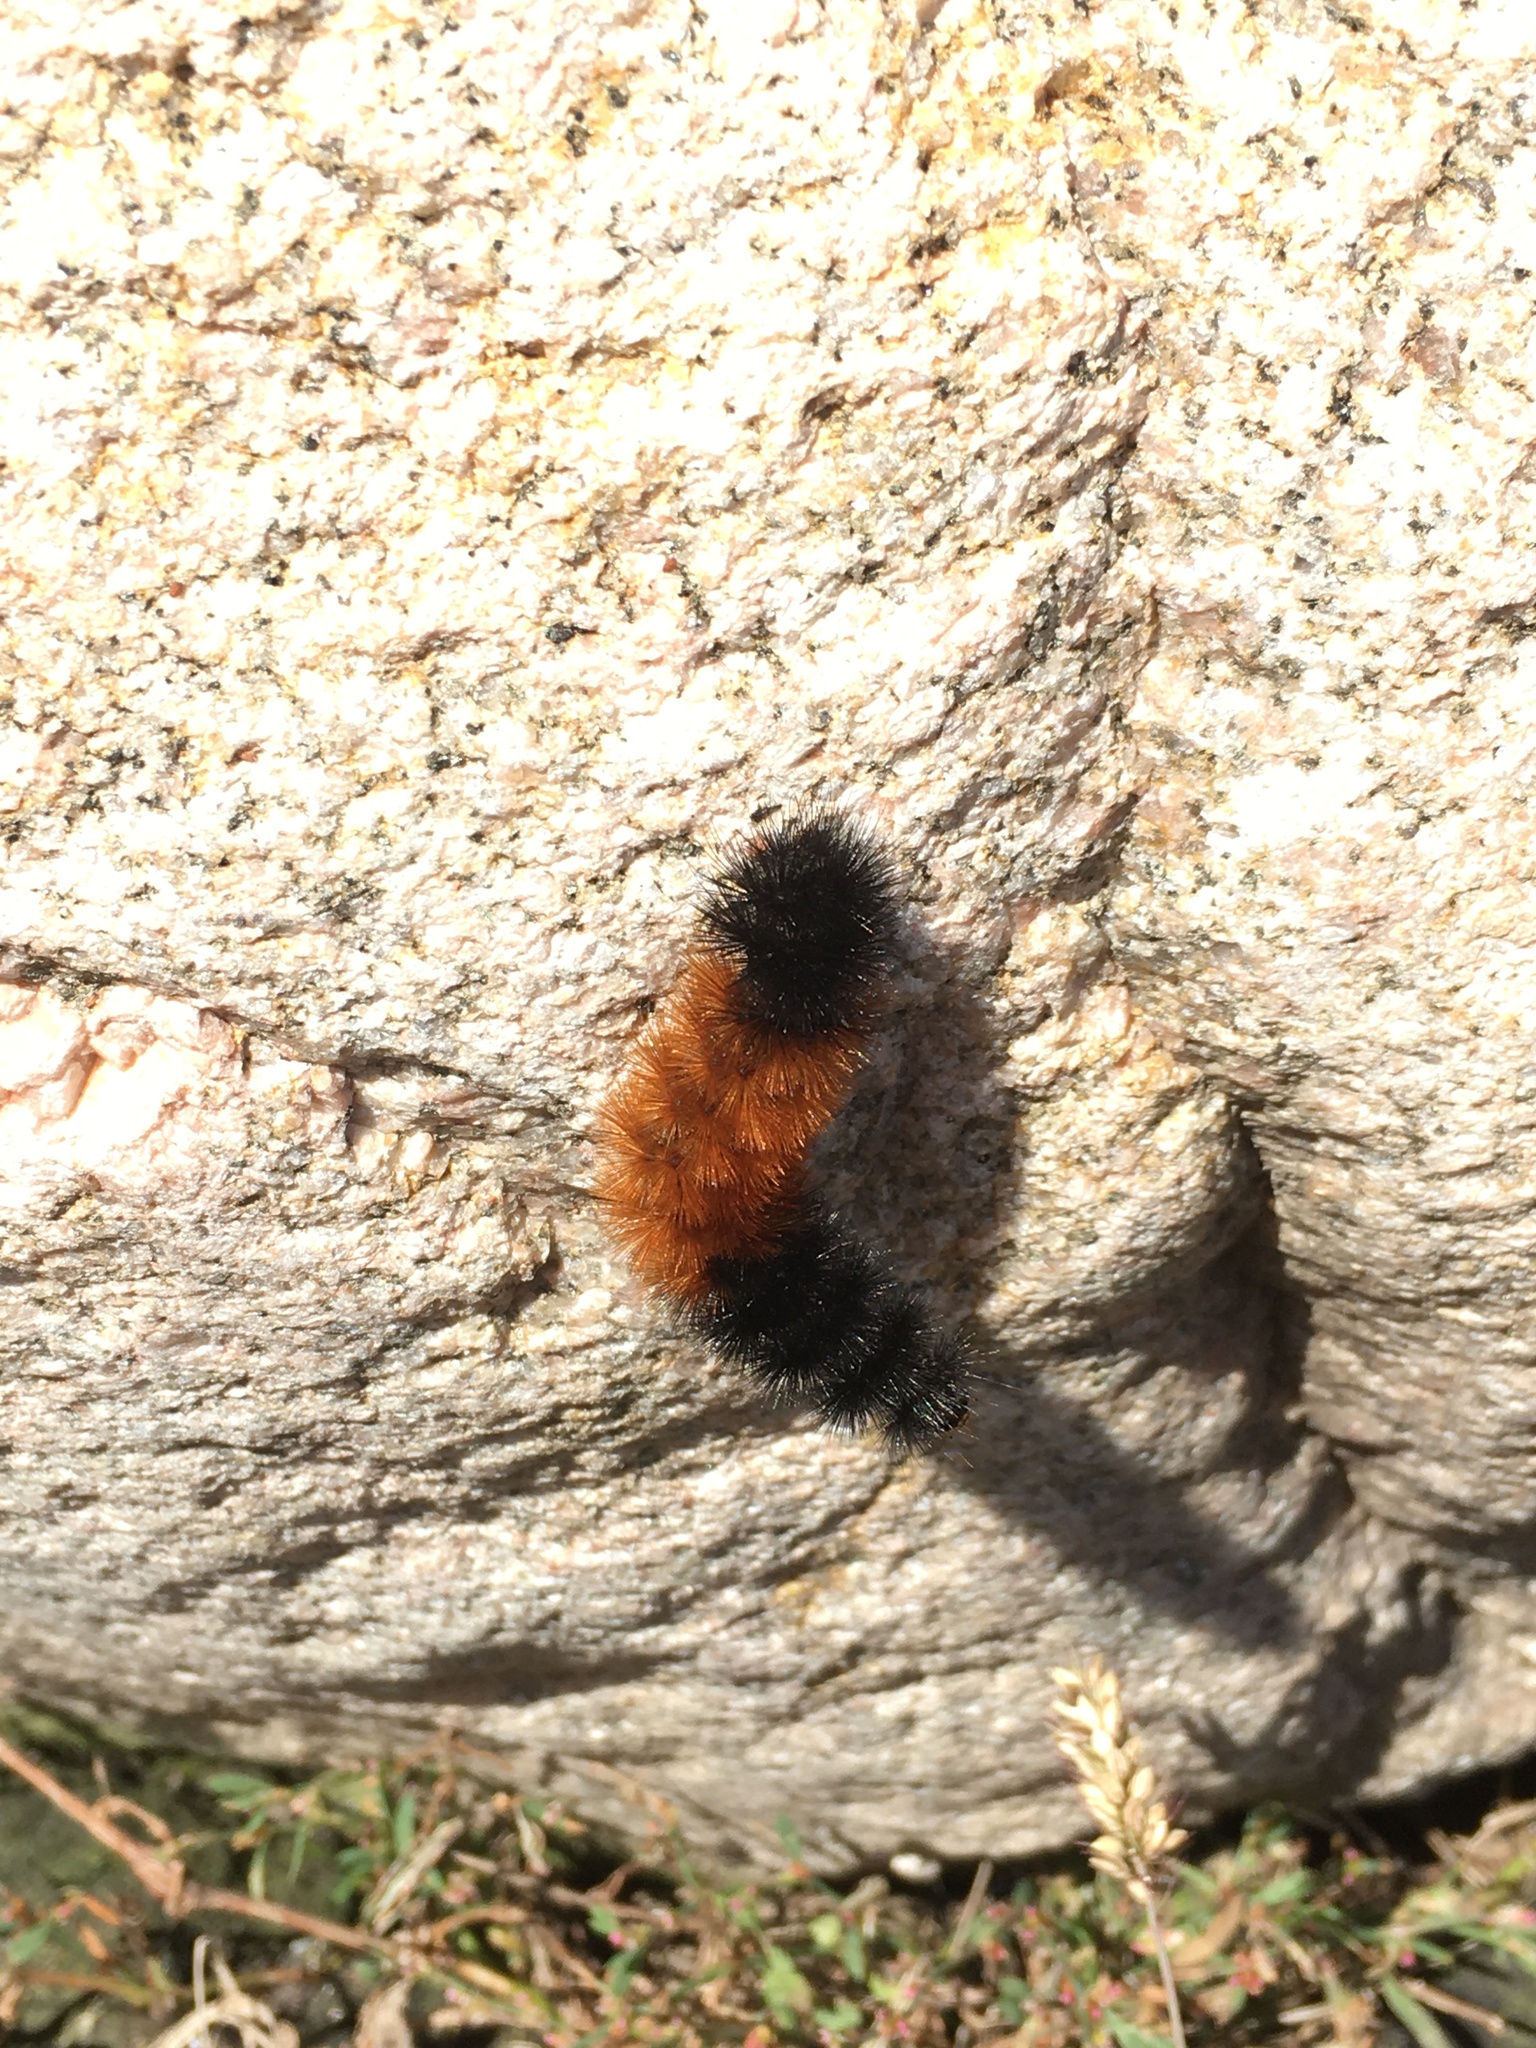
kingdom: Animalia
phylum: Arthropoda
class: Insecta
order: Lepidoptera
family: Erebidae
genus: Pyrrharctia
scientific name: Pyrrharctia isabella
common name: Isabella tiger moth
